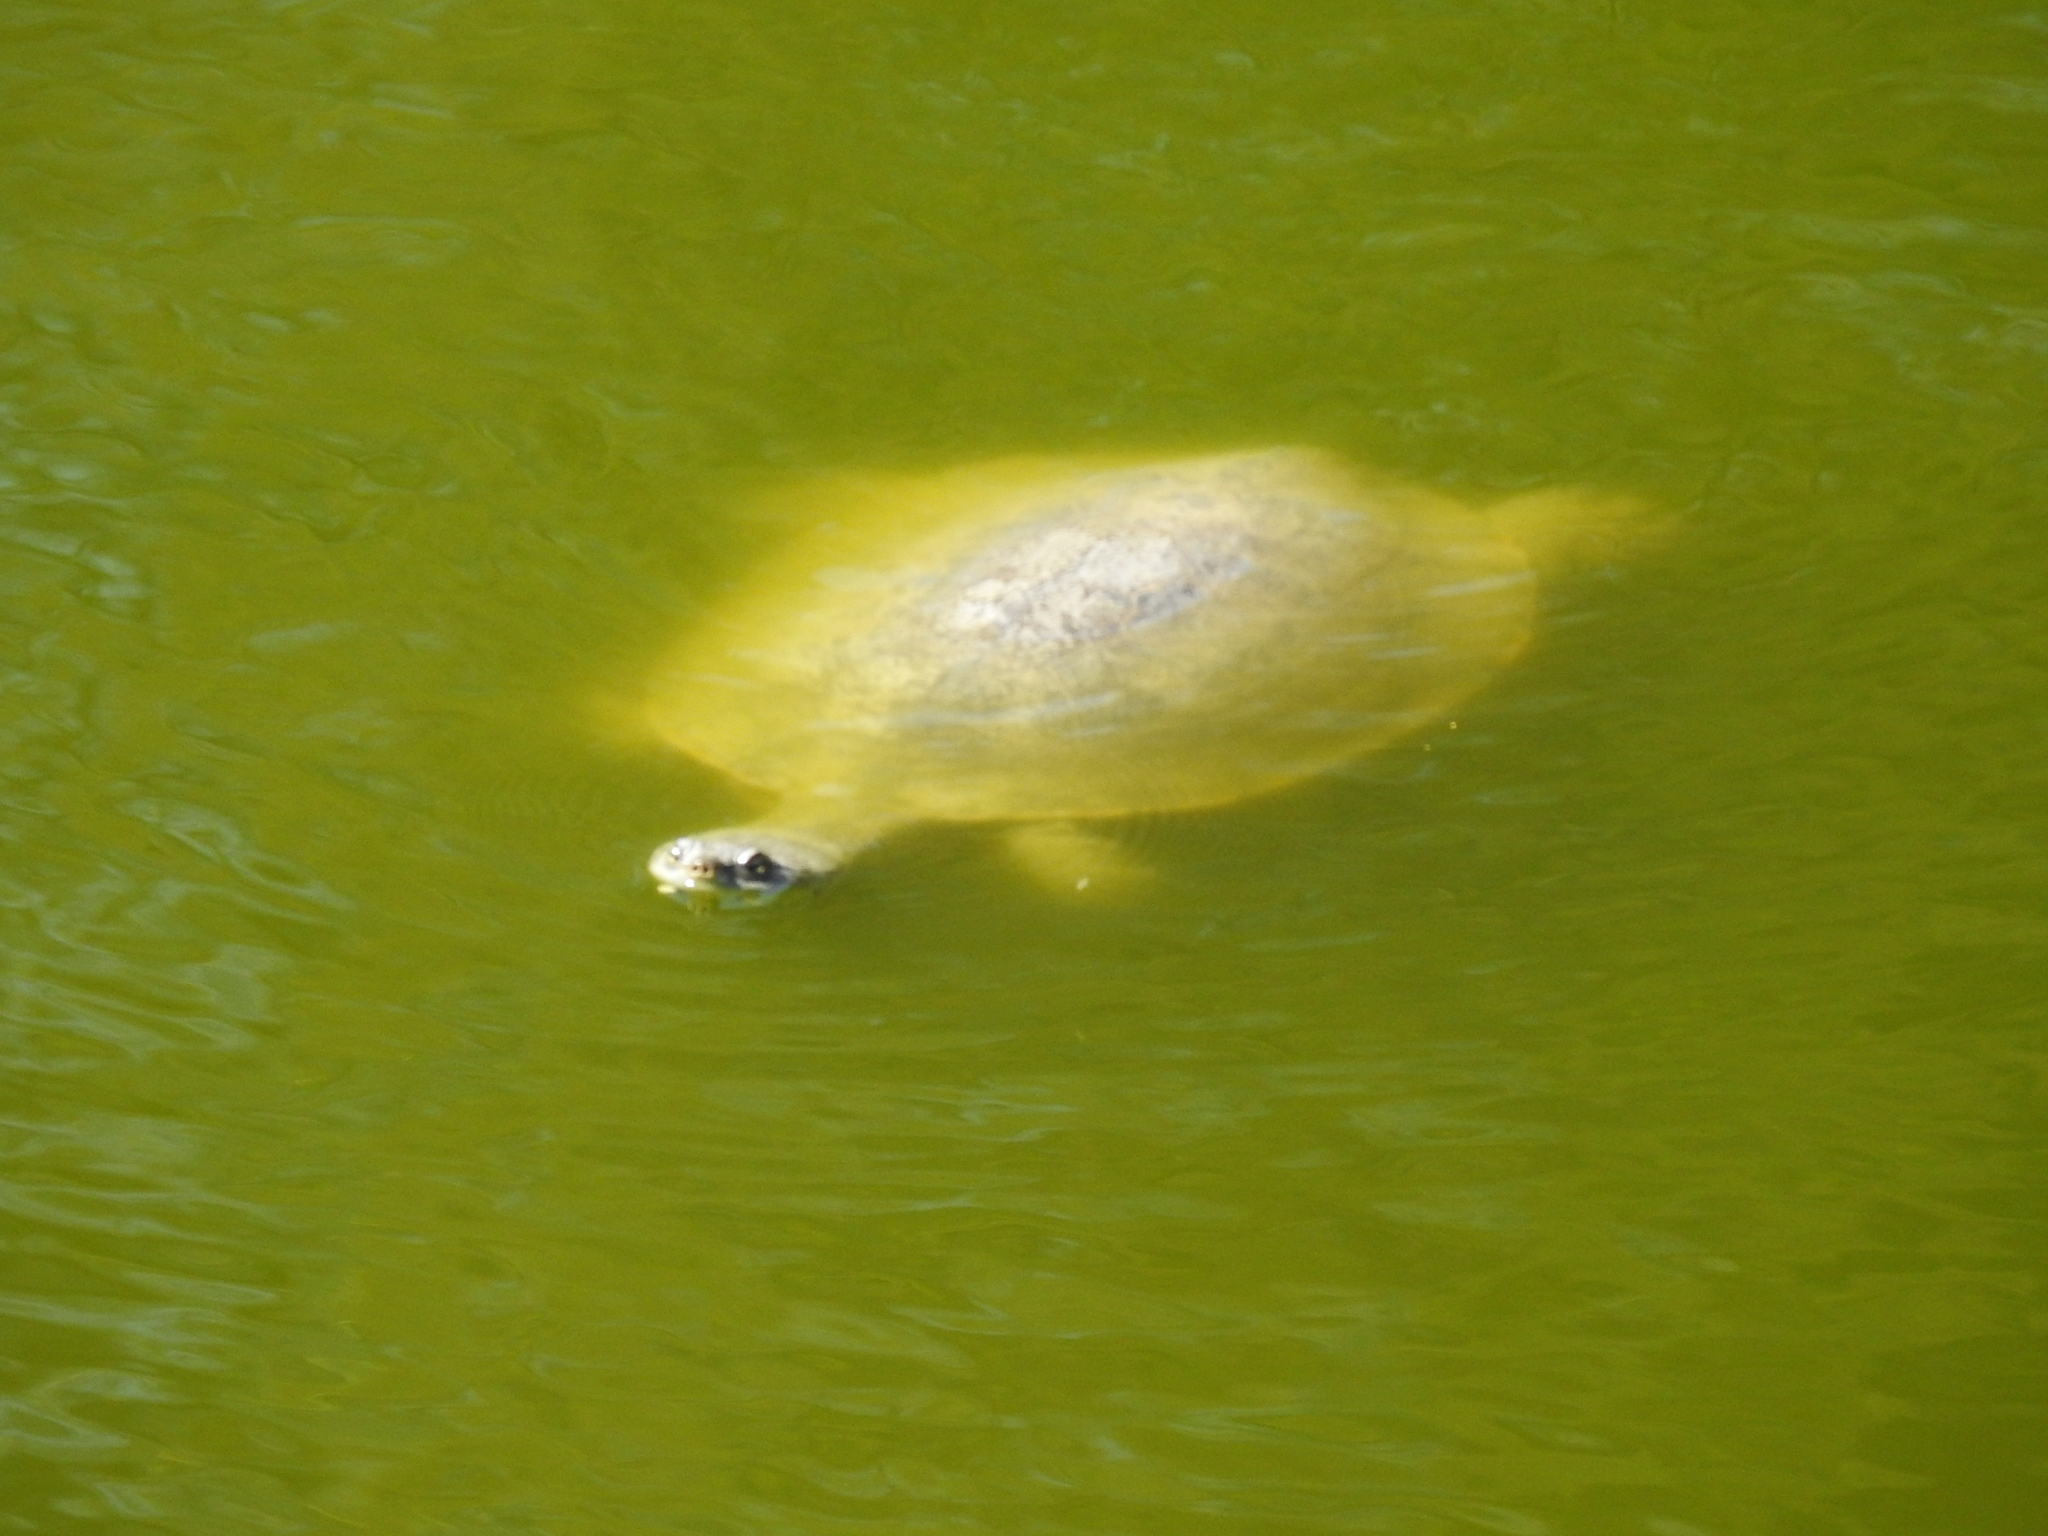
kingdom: Animalia
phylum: Chordata
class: Testudines
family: Chelidae
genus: Phrynops
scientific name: Phrynops hilarii
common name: Side-necked turtle of saint hillaire
